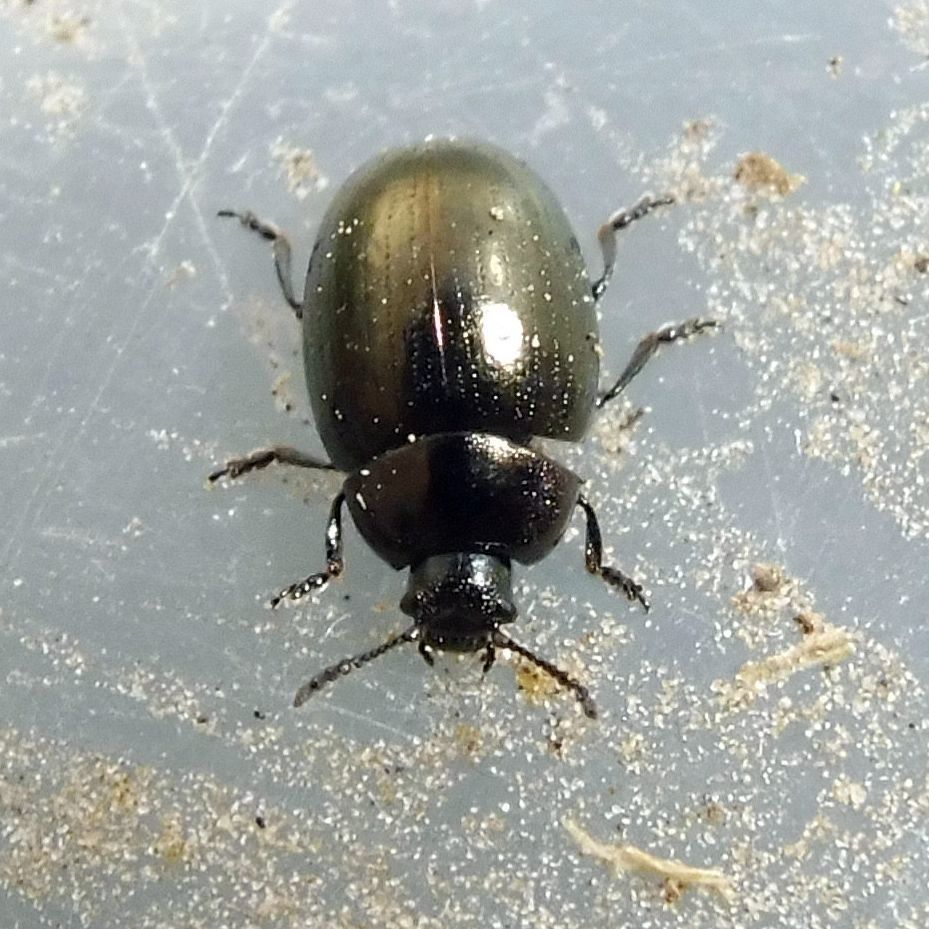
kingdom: Animalia
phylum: Arthropoda
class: Insecta
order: Coleoptera
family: Chrysomelidae
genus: Phaedon
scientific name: Phaedon tumidulus
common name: Celery leaf beetle
